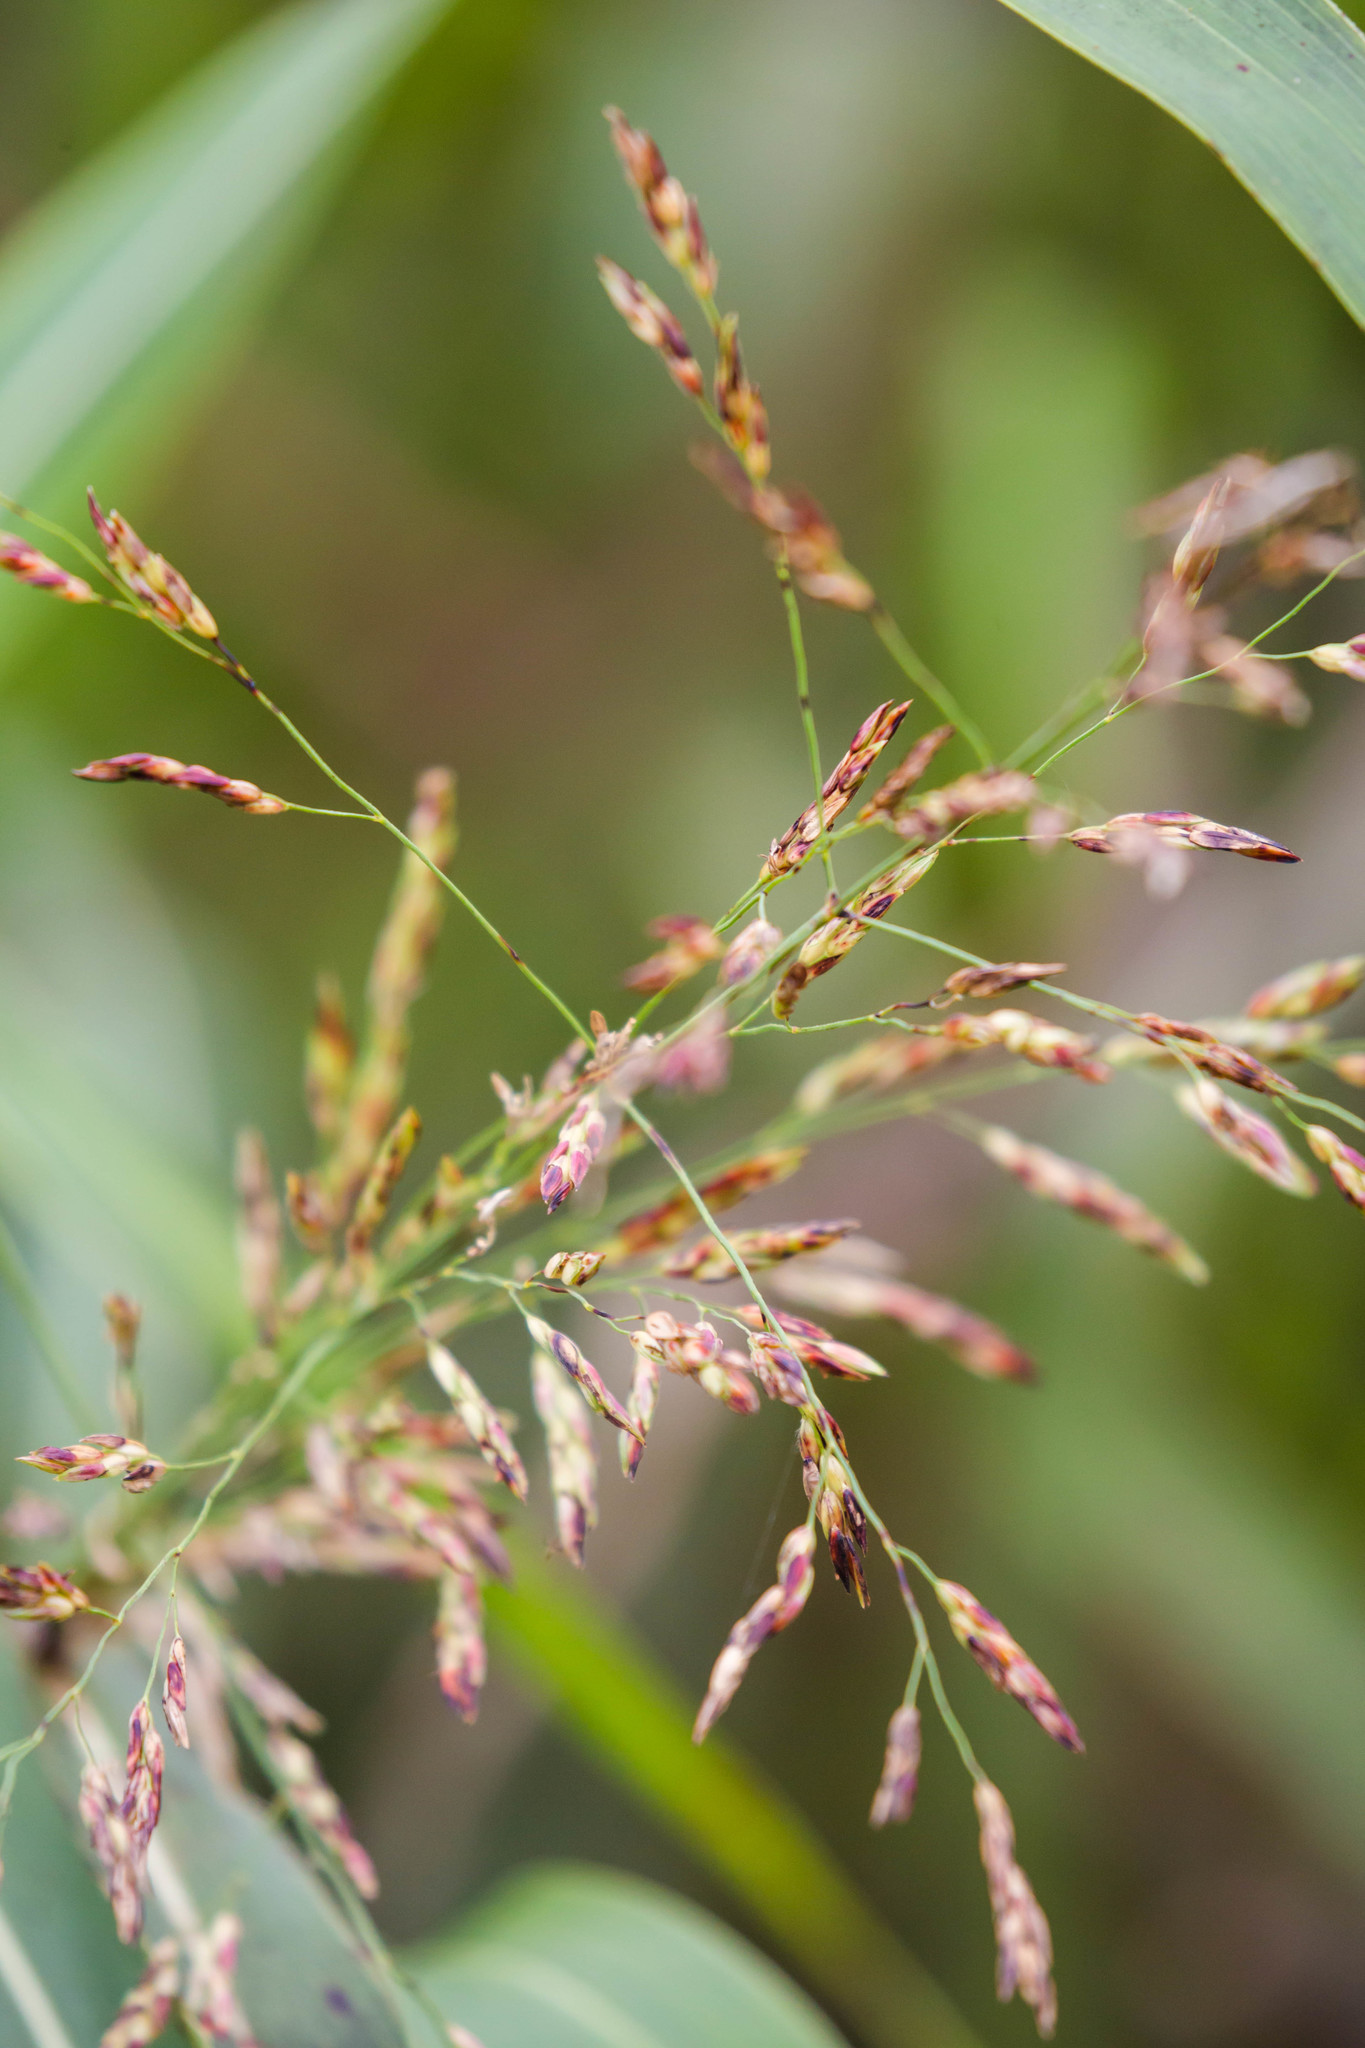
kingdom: Plantae
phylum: Tracheophyta
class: Liliopsida
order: Poales
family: Poaceae
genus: Sorghum
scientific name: Sorghum halepense
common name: Johnson-grass
